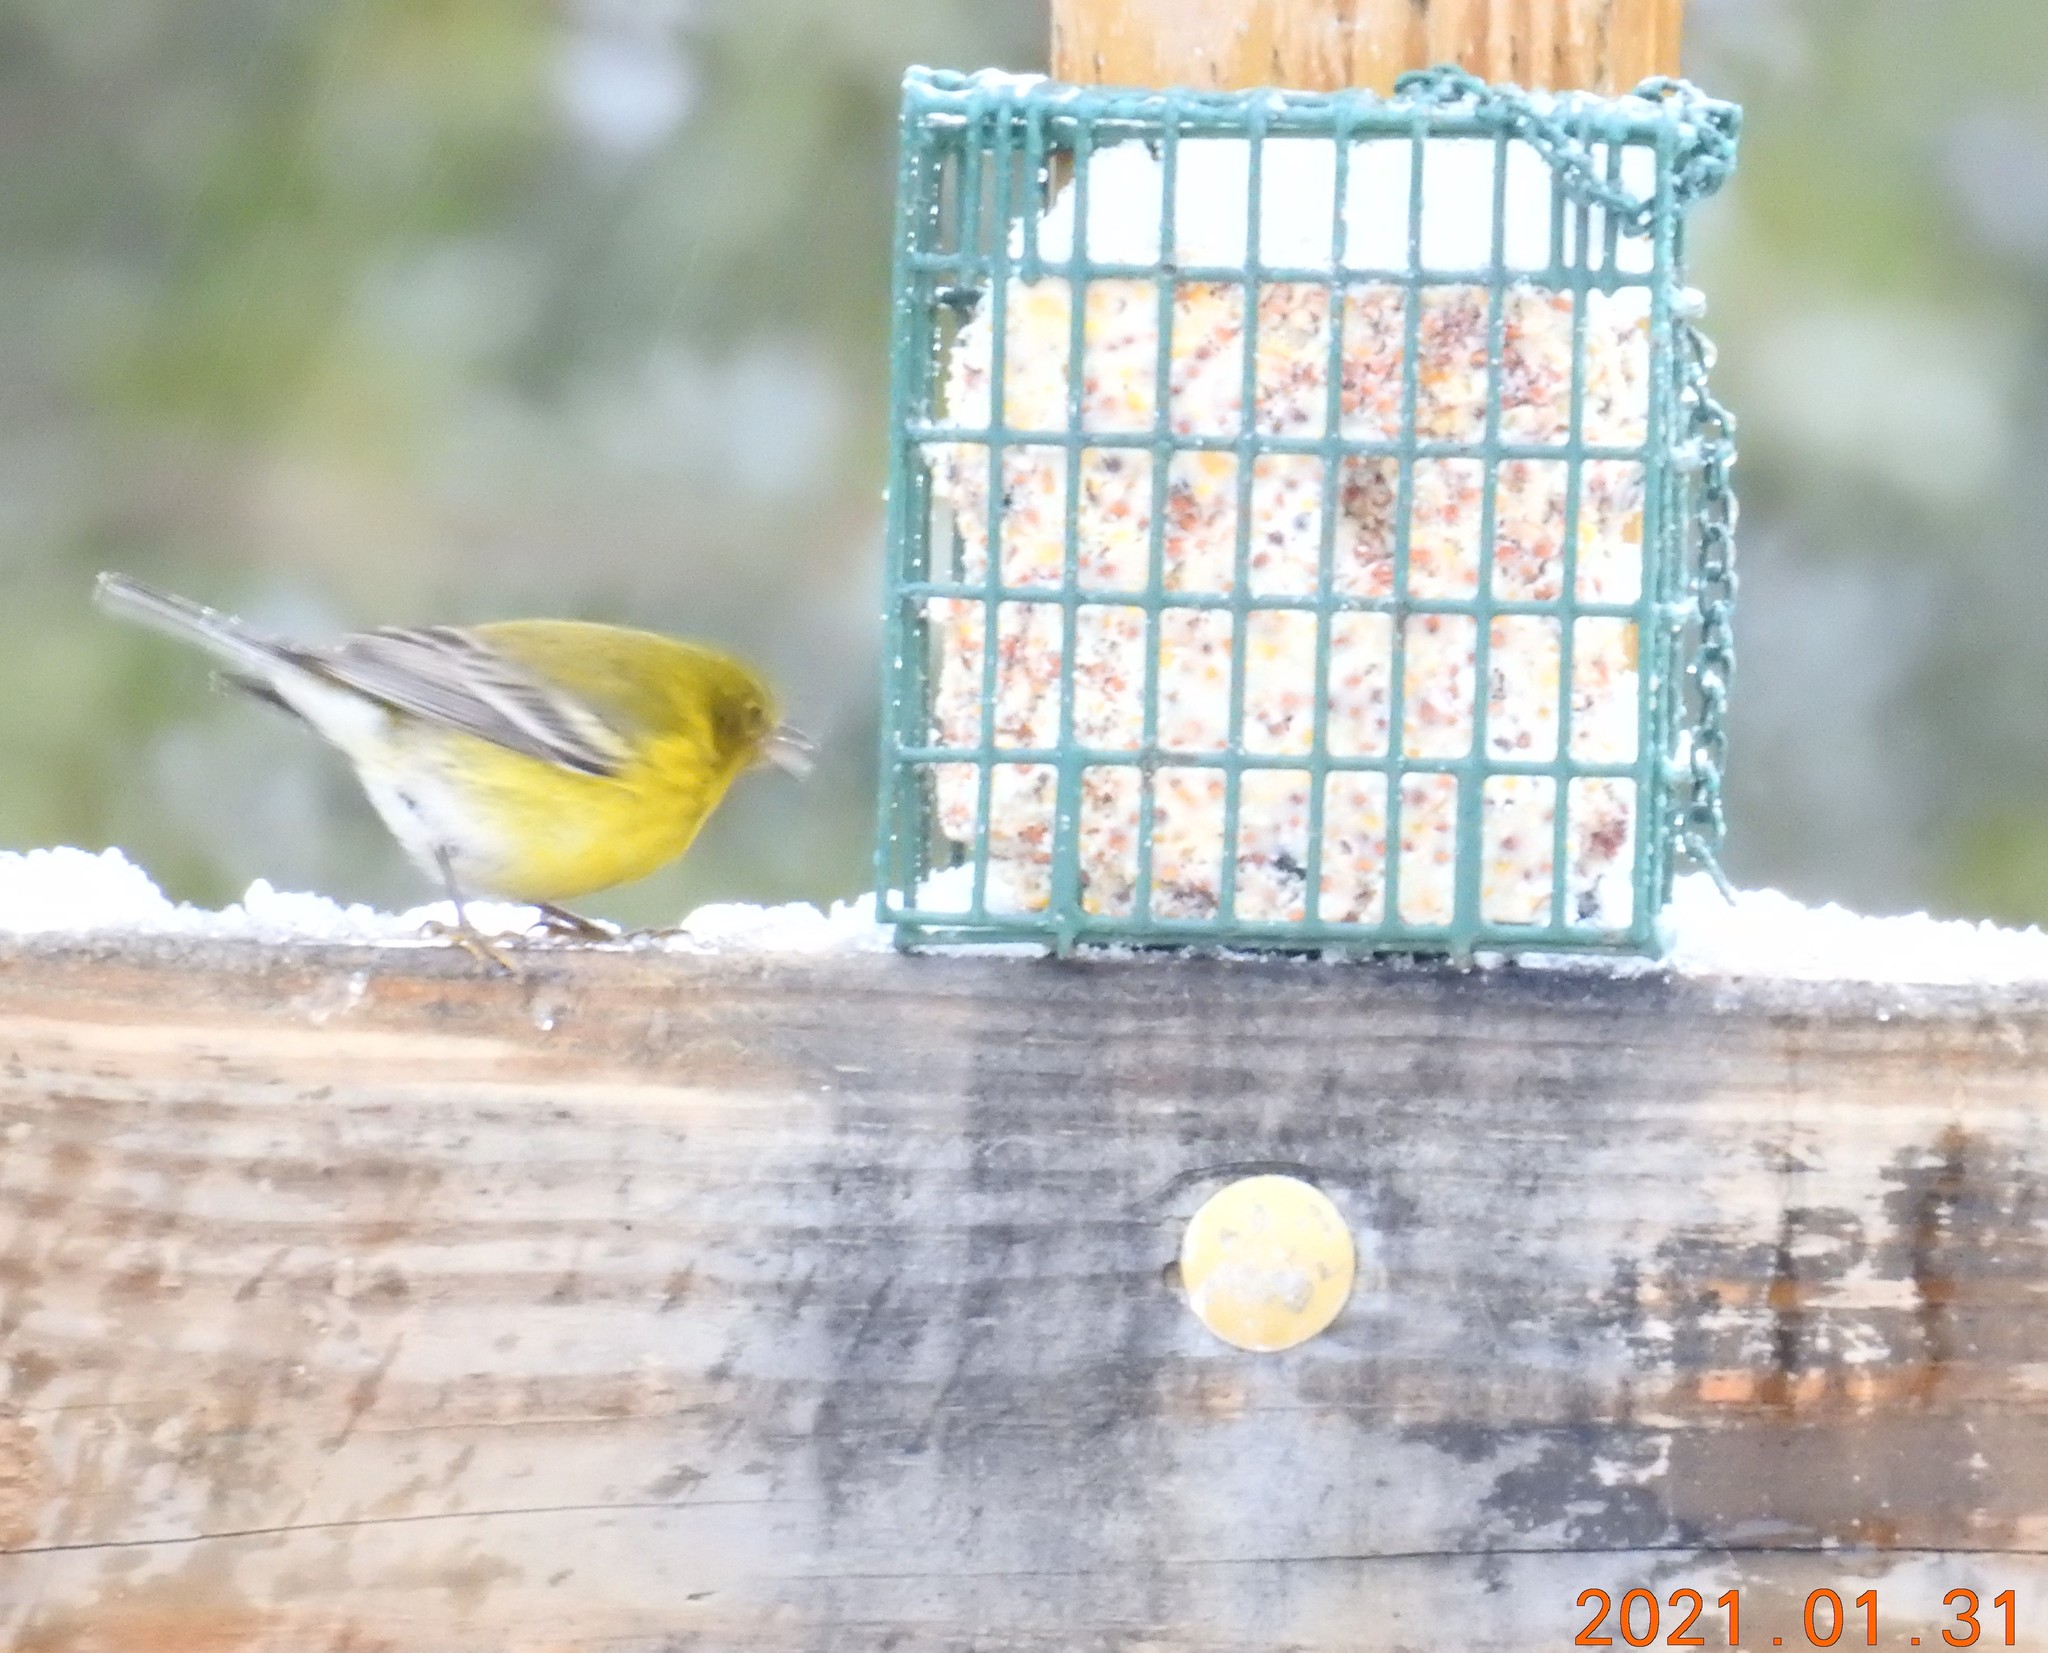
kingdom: Animalia
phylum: Chordata
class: Aves
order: Passeriformes
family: Parulidae
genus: Setophaga
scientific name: Setophaga pinus
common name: Pine warbler
